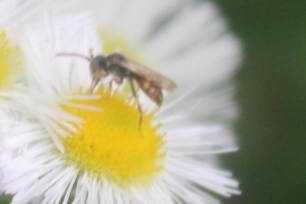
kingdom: Animalia
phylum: Arthropoda
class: Insecta
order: Hymenoptera
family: Apidae
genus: Nomada
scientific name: Nomada
